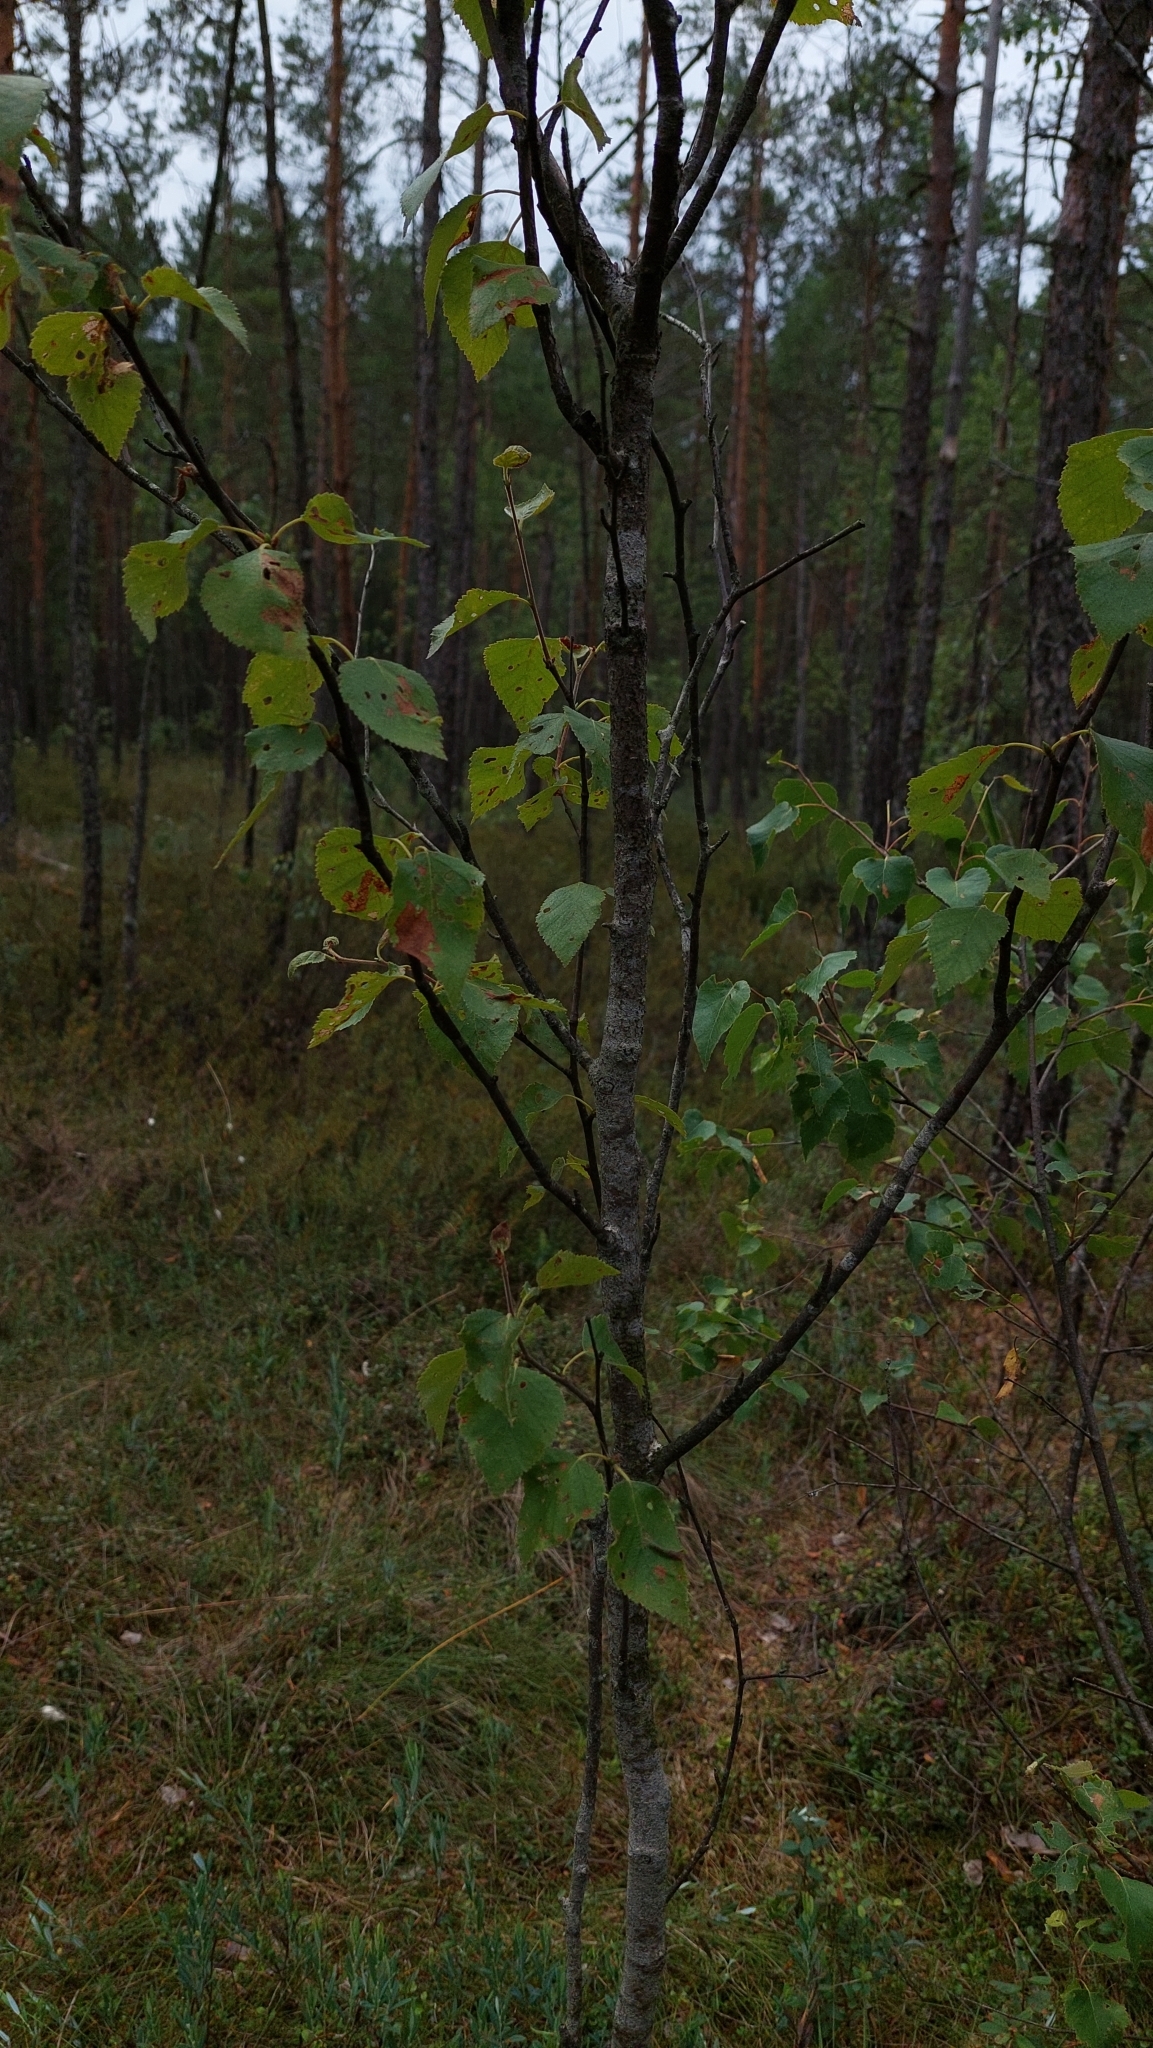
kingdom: Plantae
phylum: Tracheophyta
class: Magnoliopsida
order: Fagales
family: Betulaceae
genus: Betula
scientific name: Betula pubescens
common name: Downy birch
